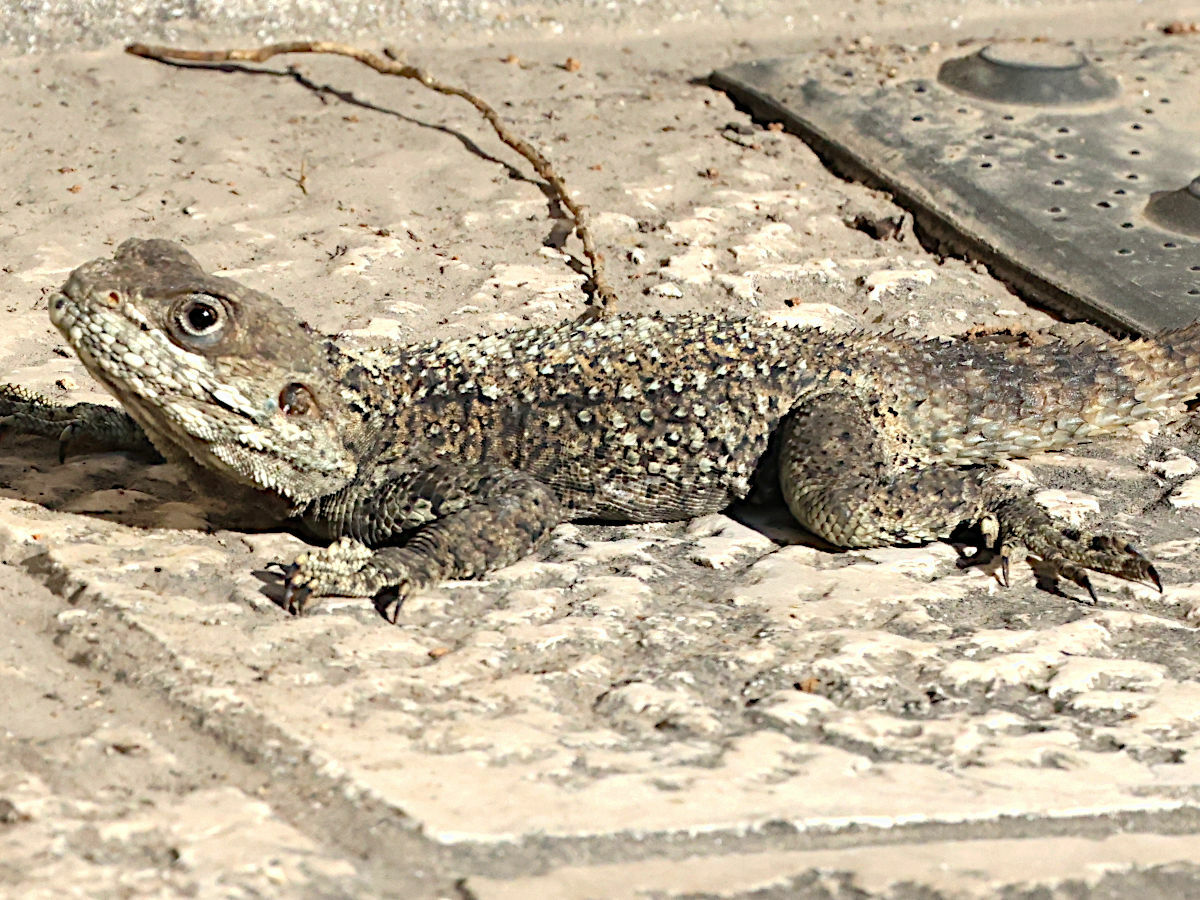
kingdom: Animalia
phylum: Chordata
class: Squamata
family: Agamidae
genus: Laudakia
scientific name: Laudakia vulgaris
